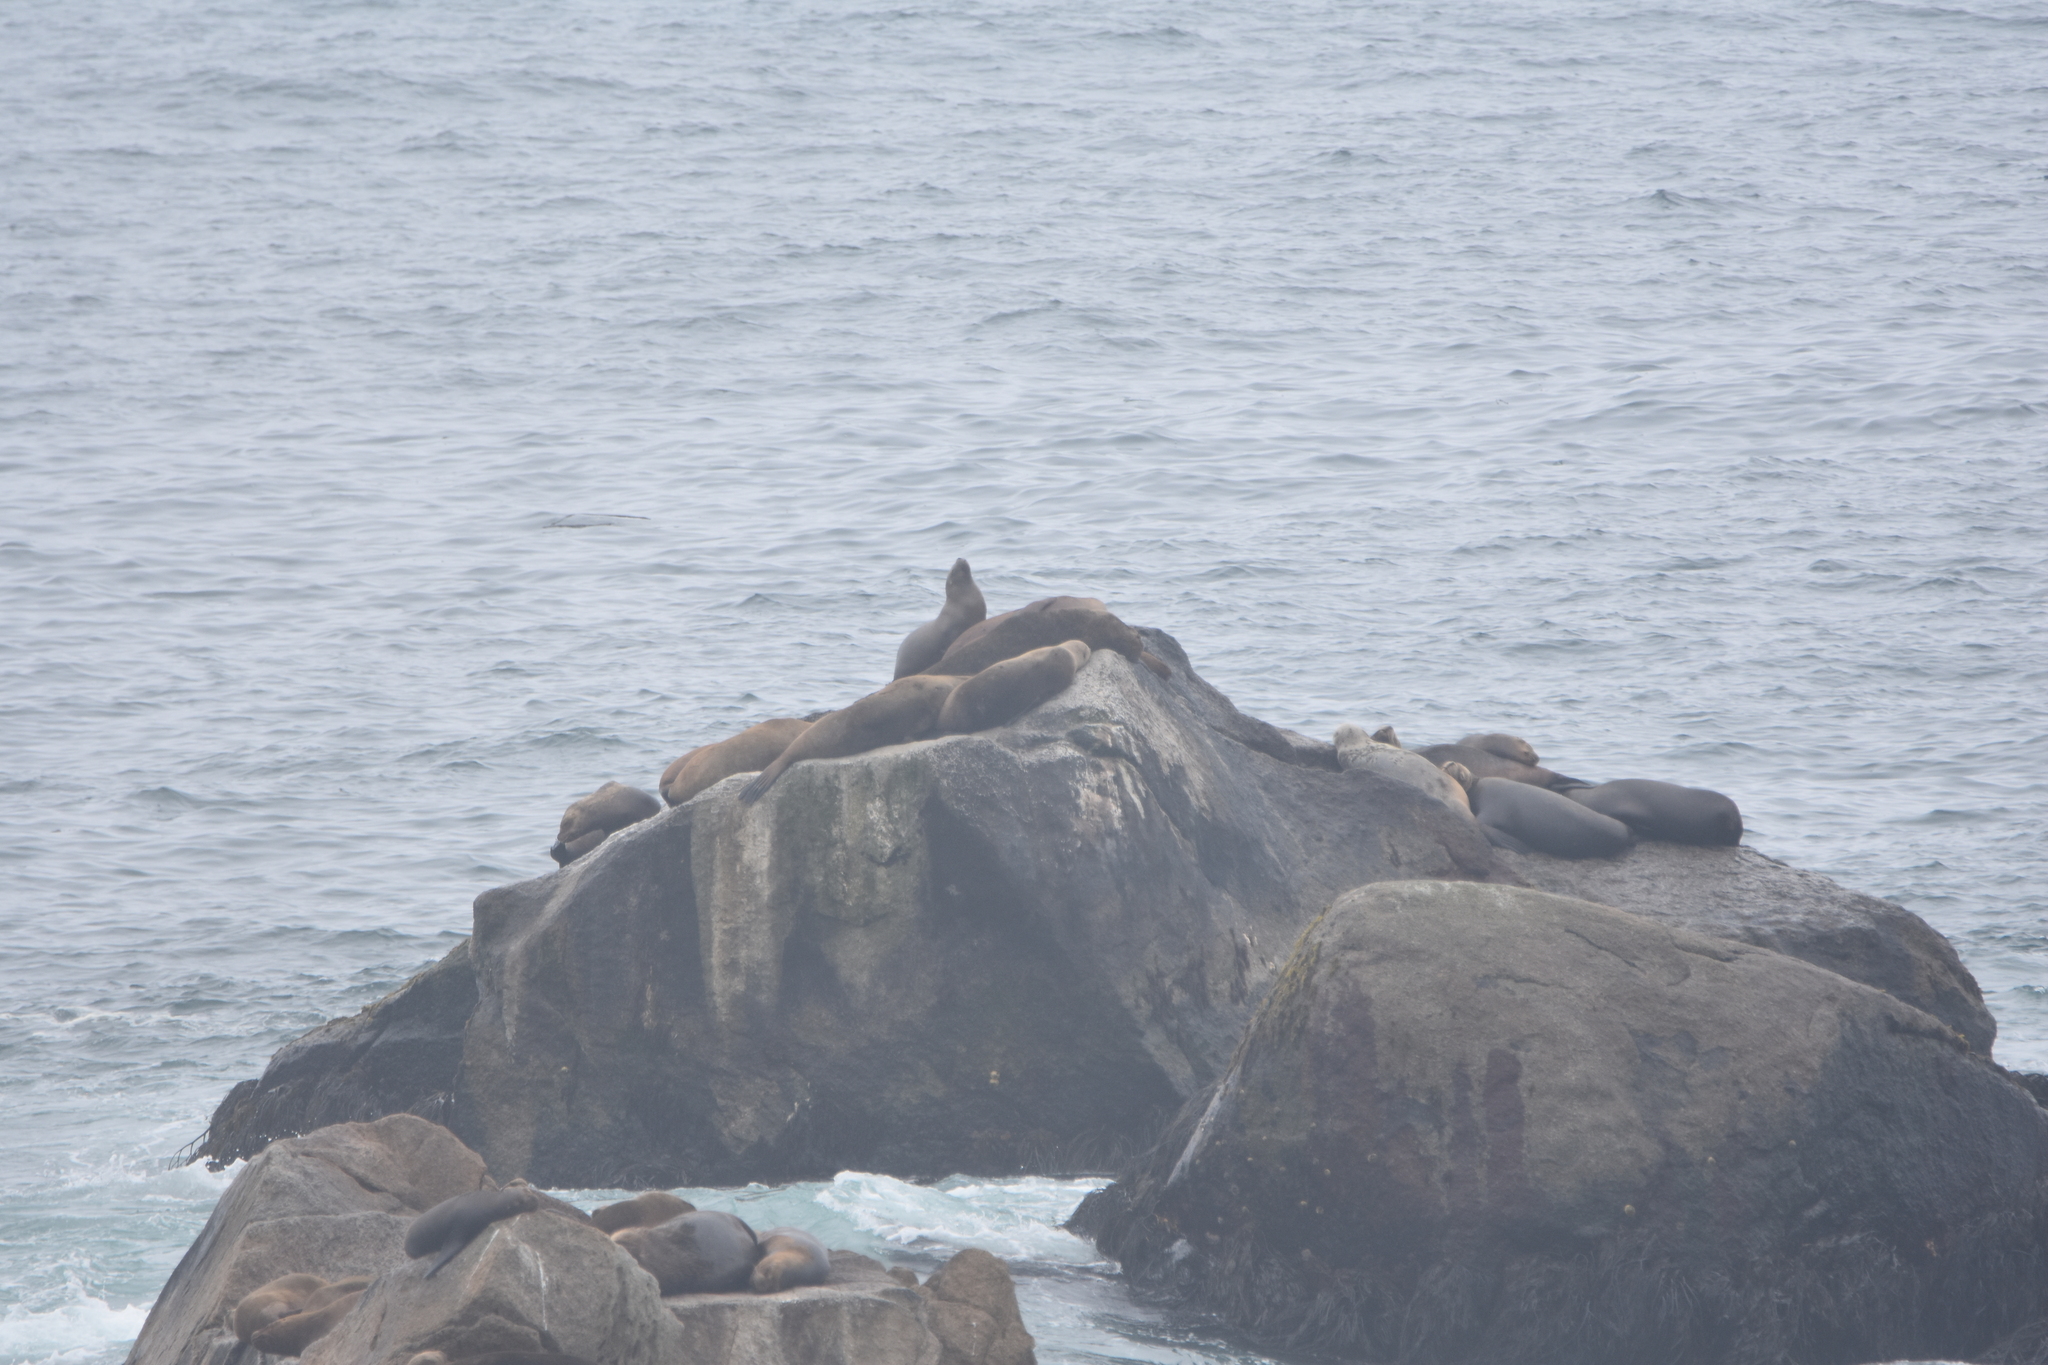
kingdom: Animalia
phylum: Chordata
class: Mammalia
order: Carnivora
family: Otariidae
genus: Otaria
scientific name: Otaria byronia
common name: South american sea lion
